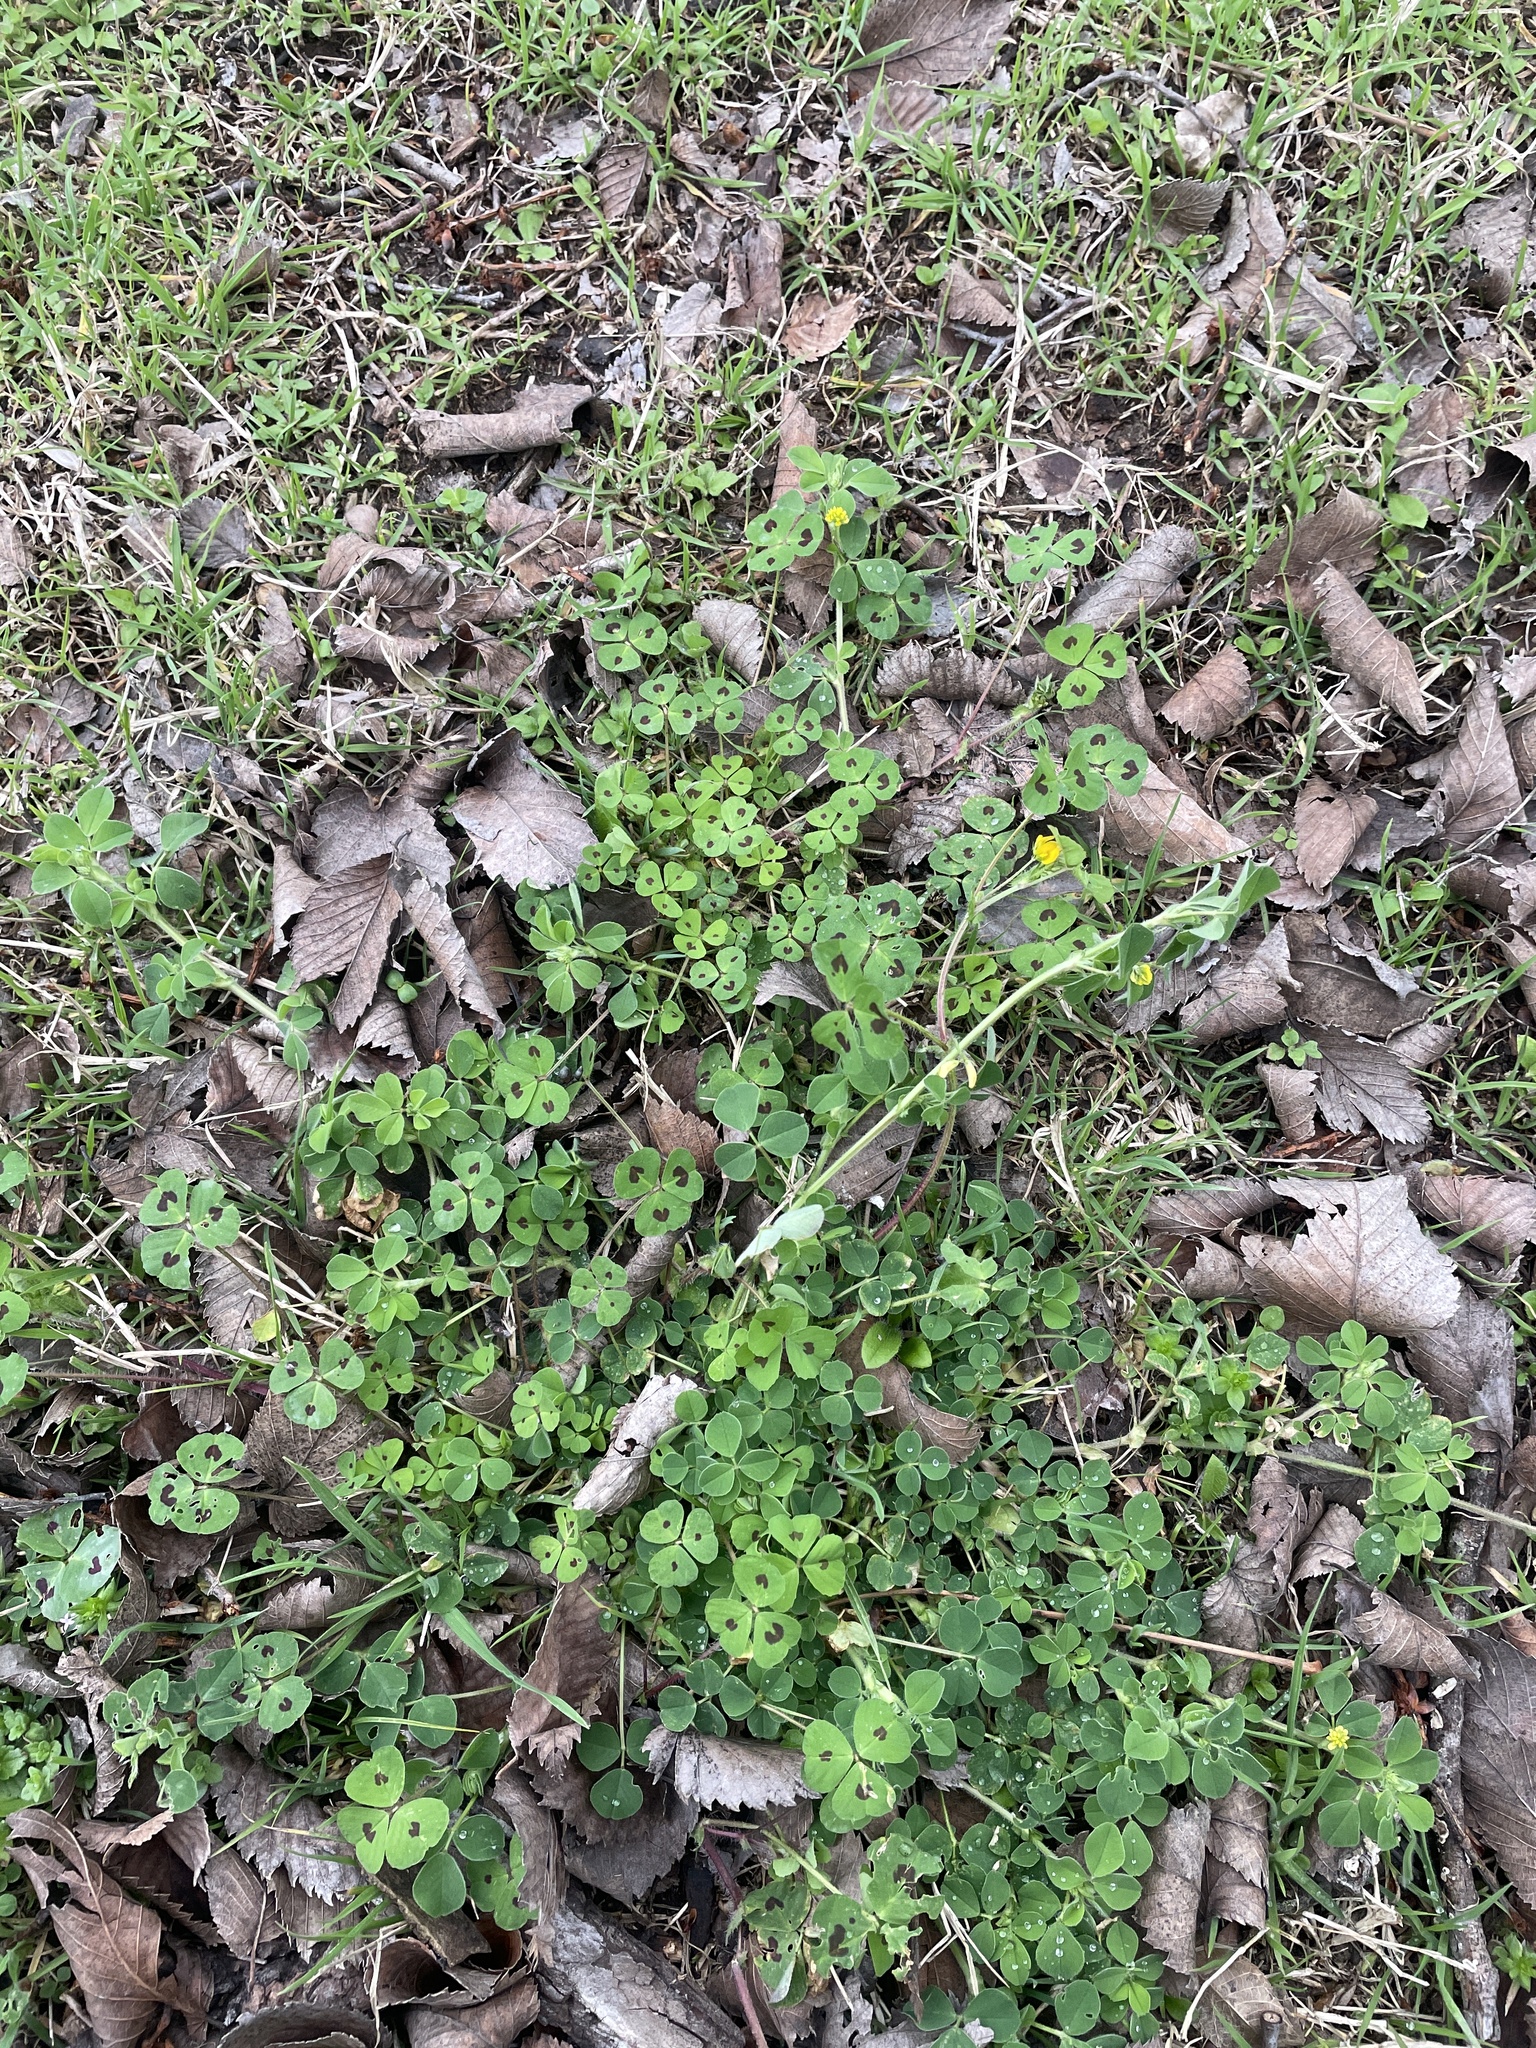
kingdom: Plantae
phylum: Tracheophyta
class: Magnoliopsida
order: Fabales
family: Fabaceae
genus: Medicago
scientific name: Medicago arabica
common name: Spotted medick
